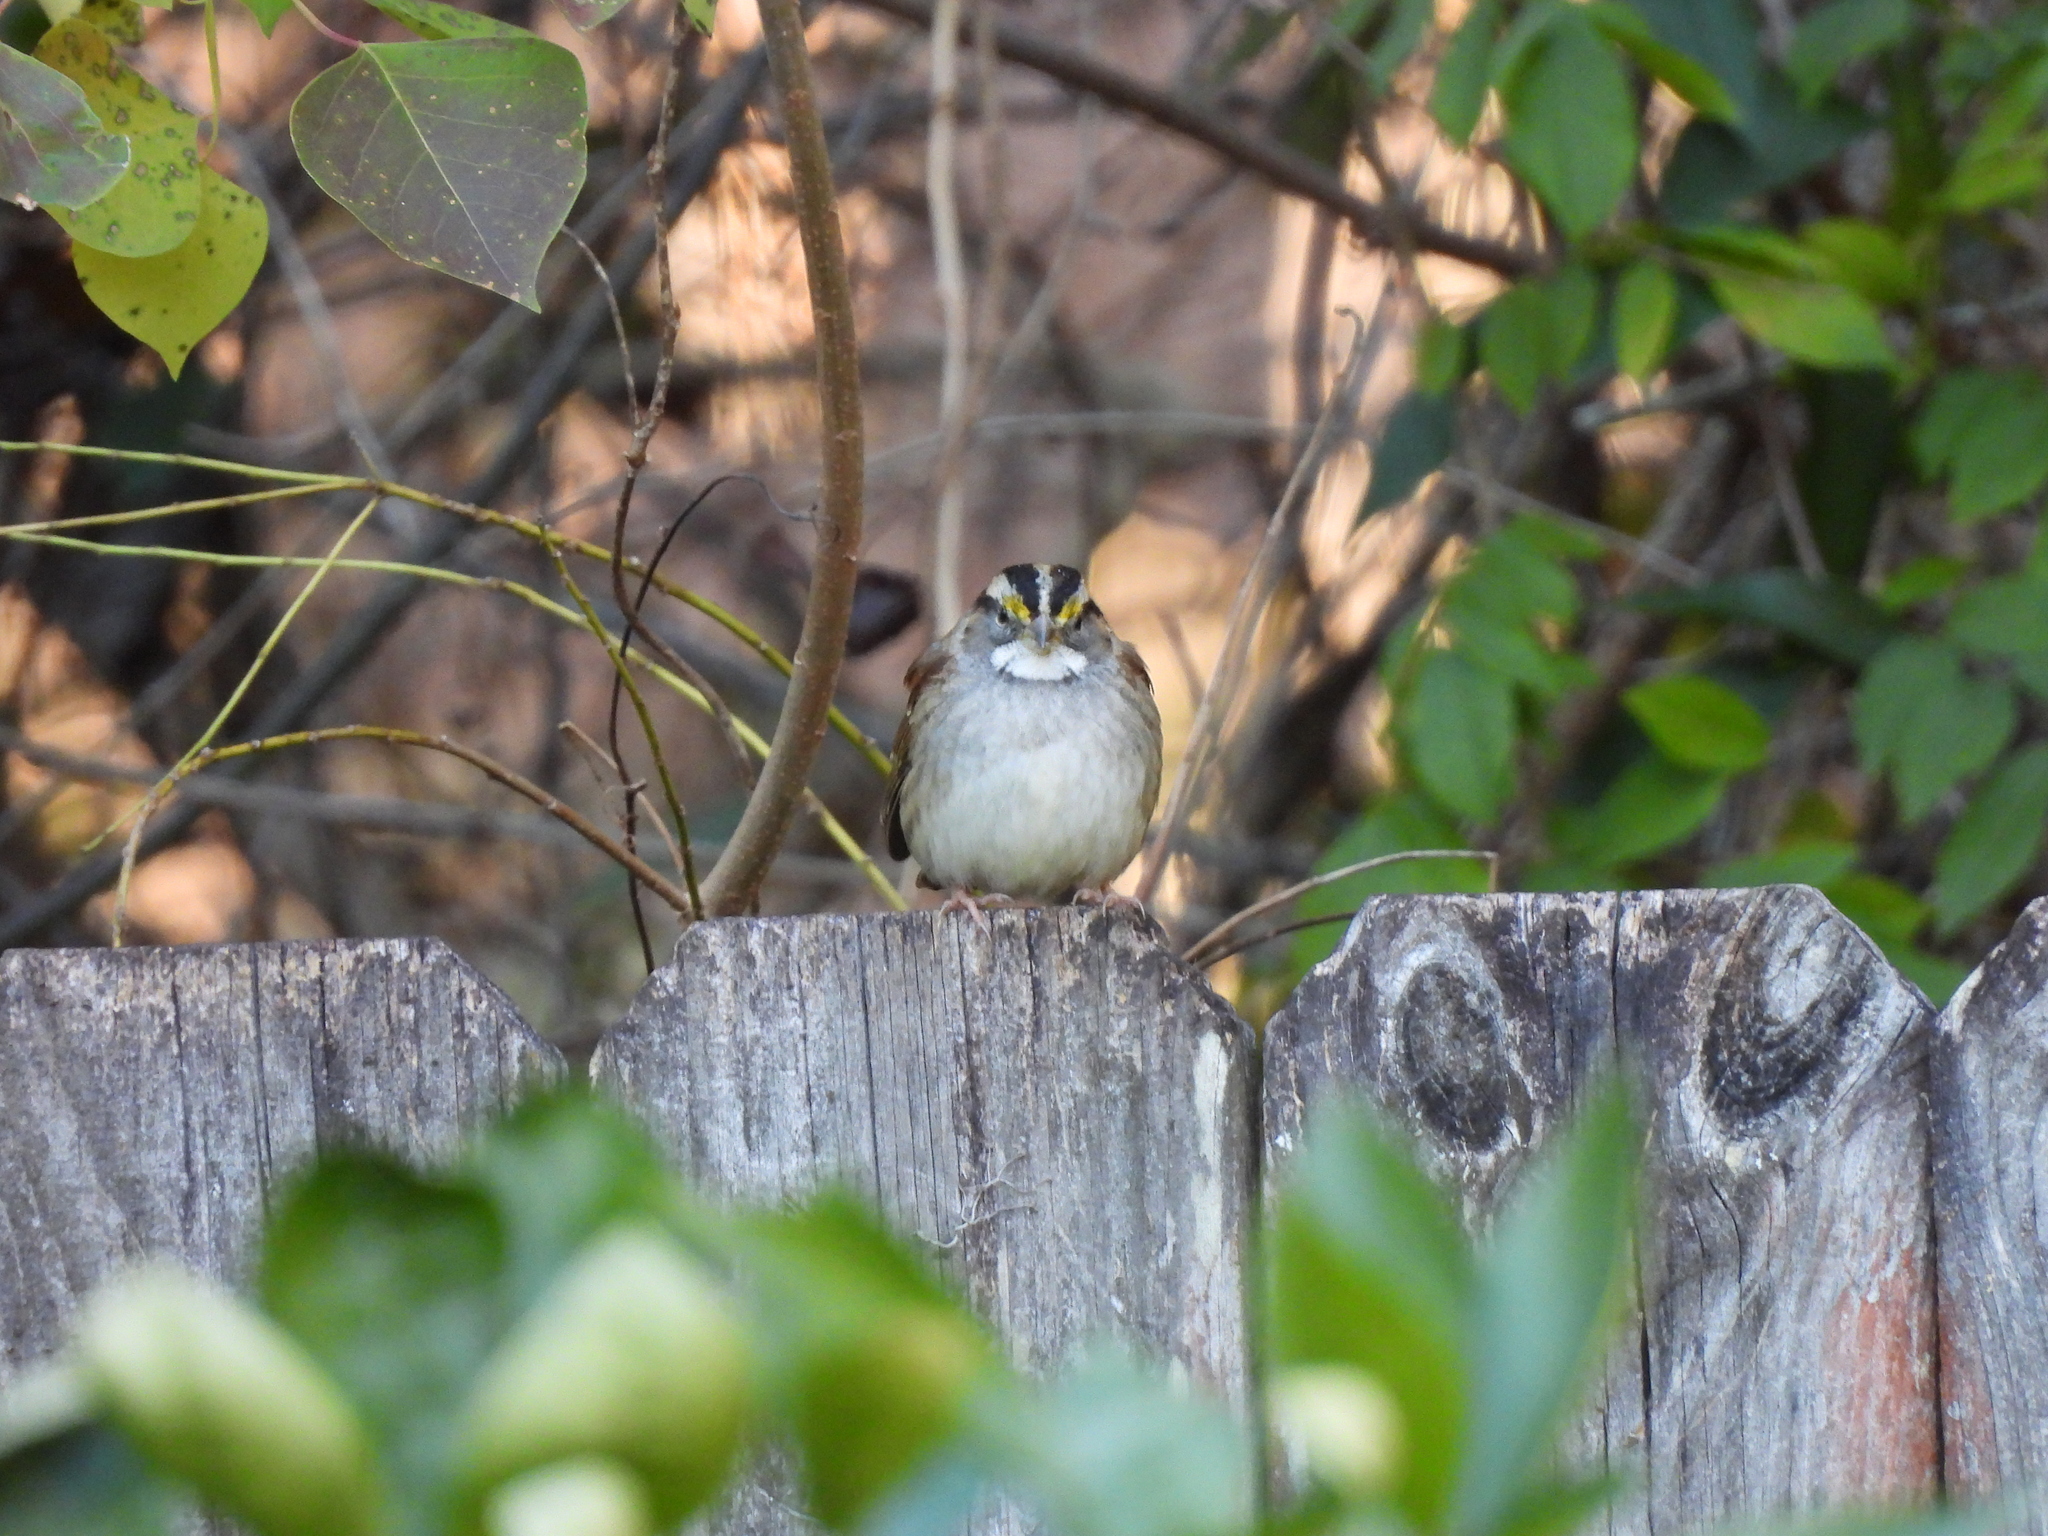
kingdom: Animalia
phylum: Chordata
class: Aves
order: Passeriformes
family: Passerellidae
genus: Zonotrichia
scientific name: Zonotrichia albicollis
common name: White-throated sparrow
